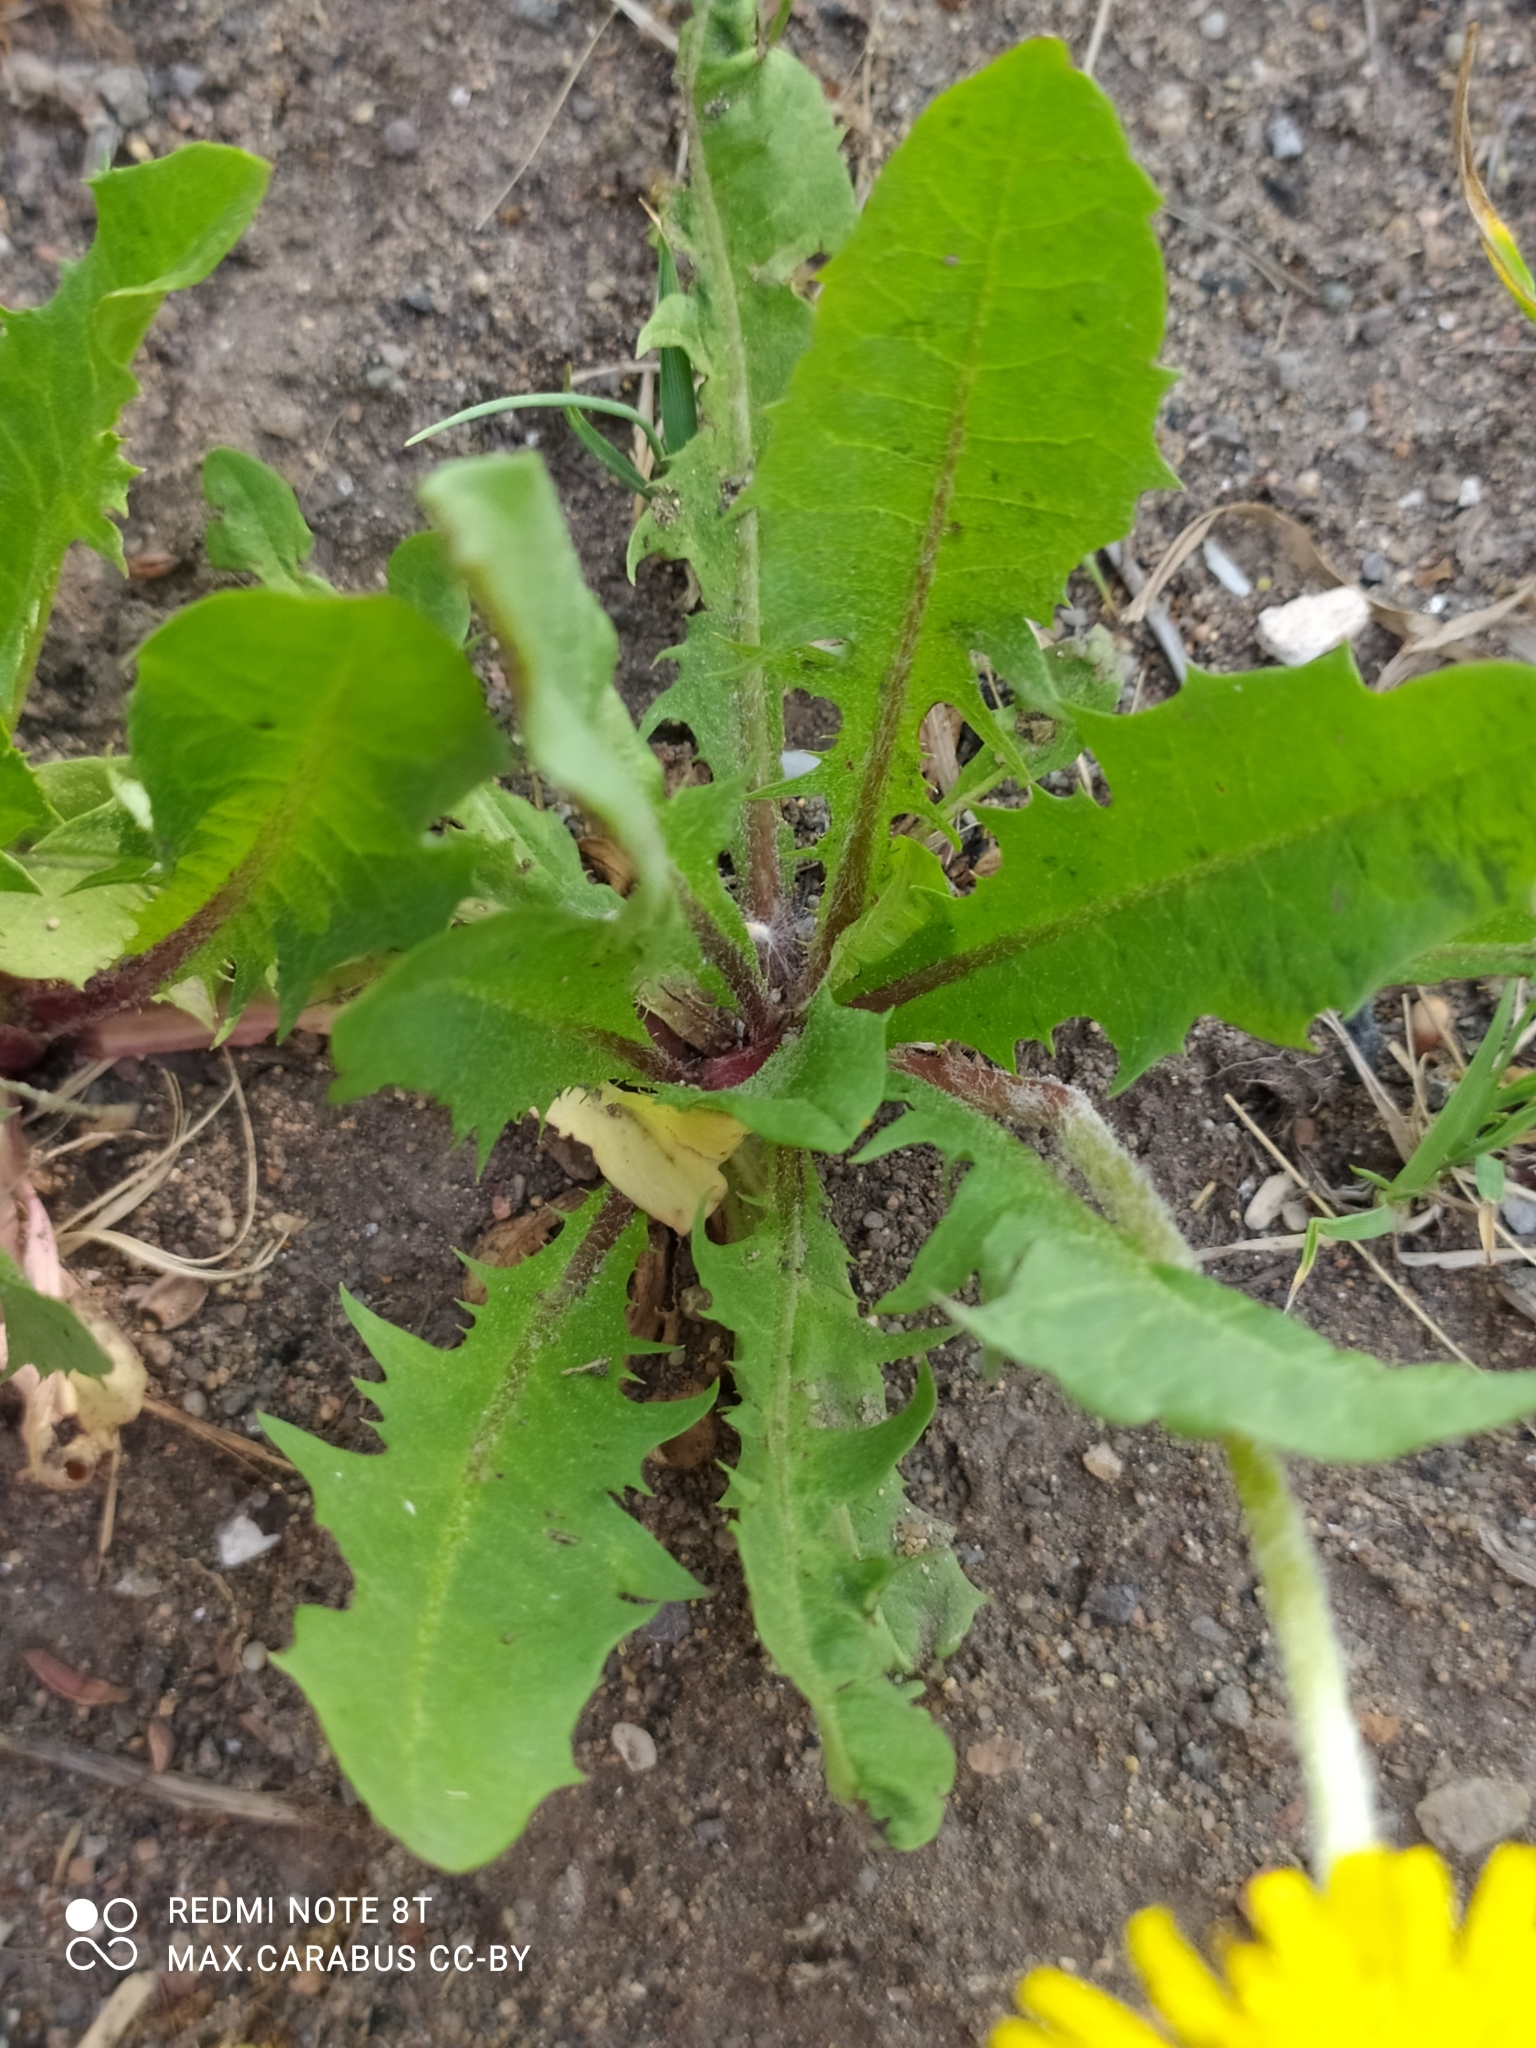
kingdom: Plantae
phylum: Tracheophyta
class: Magnoliopsida
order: Asterales
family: Asteraceae
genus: Taraxacum
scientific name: Taraxacum officinale
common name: Common dandelion
